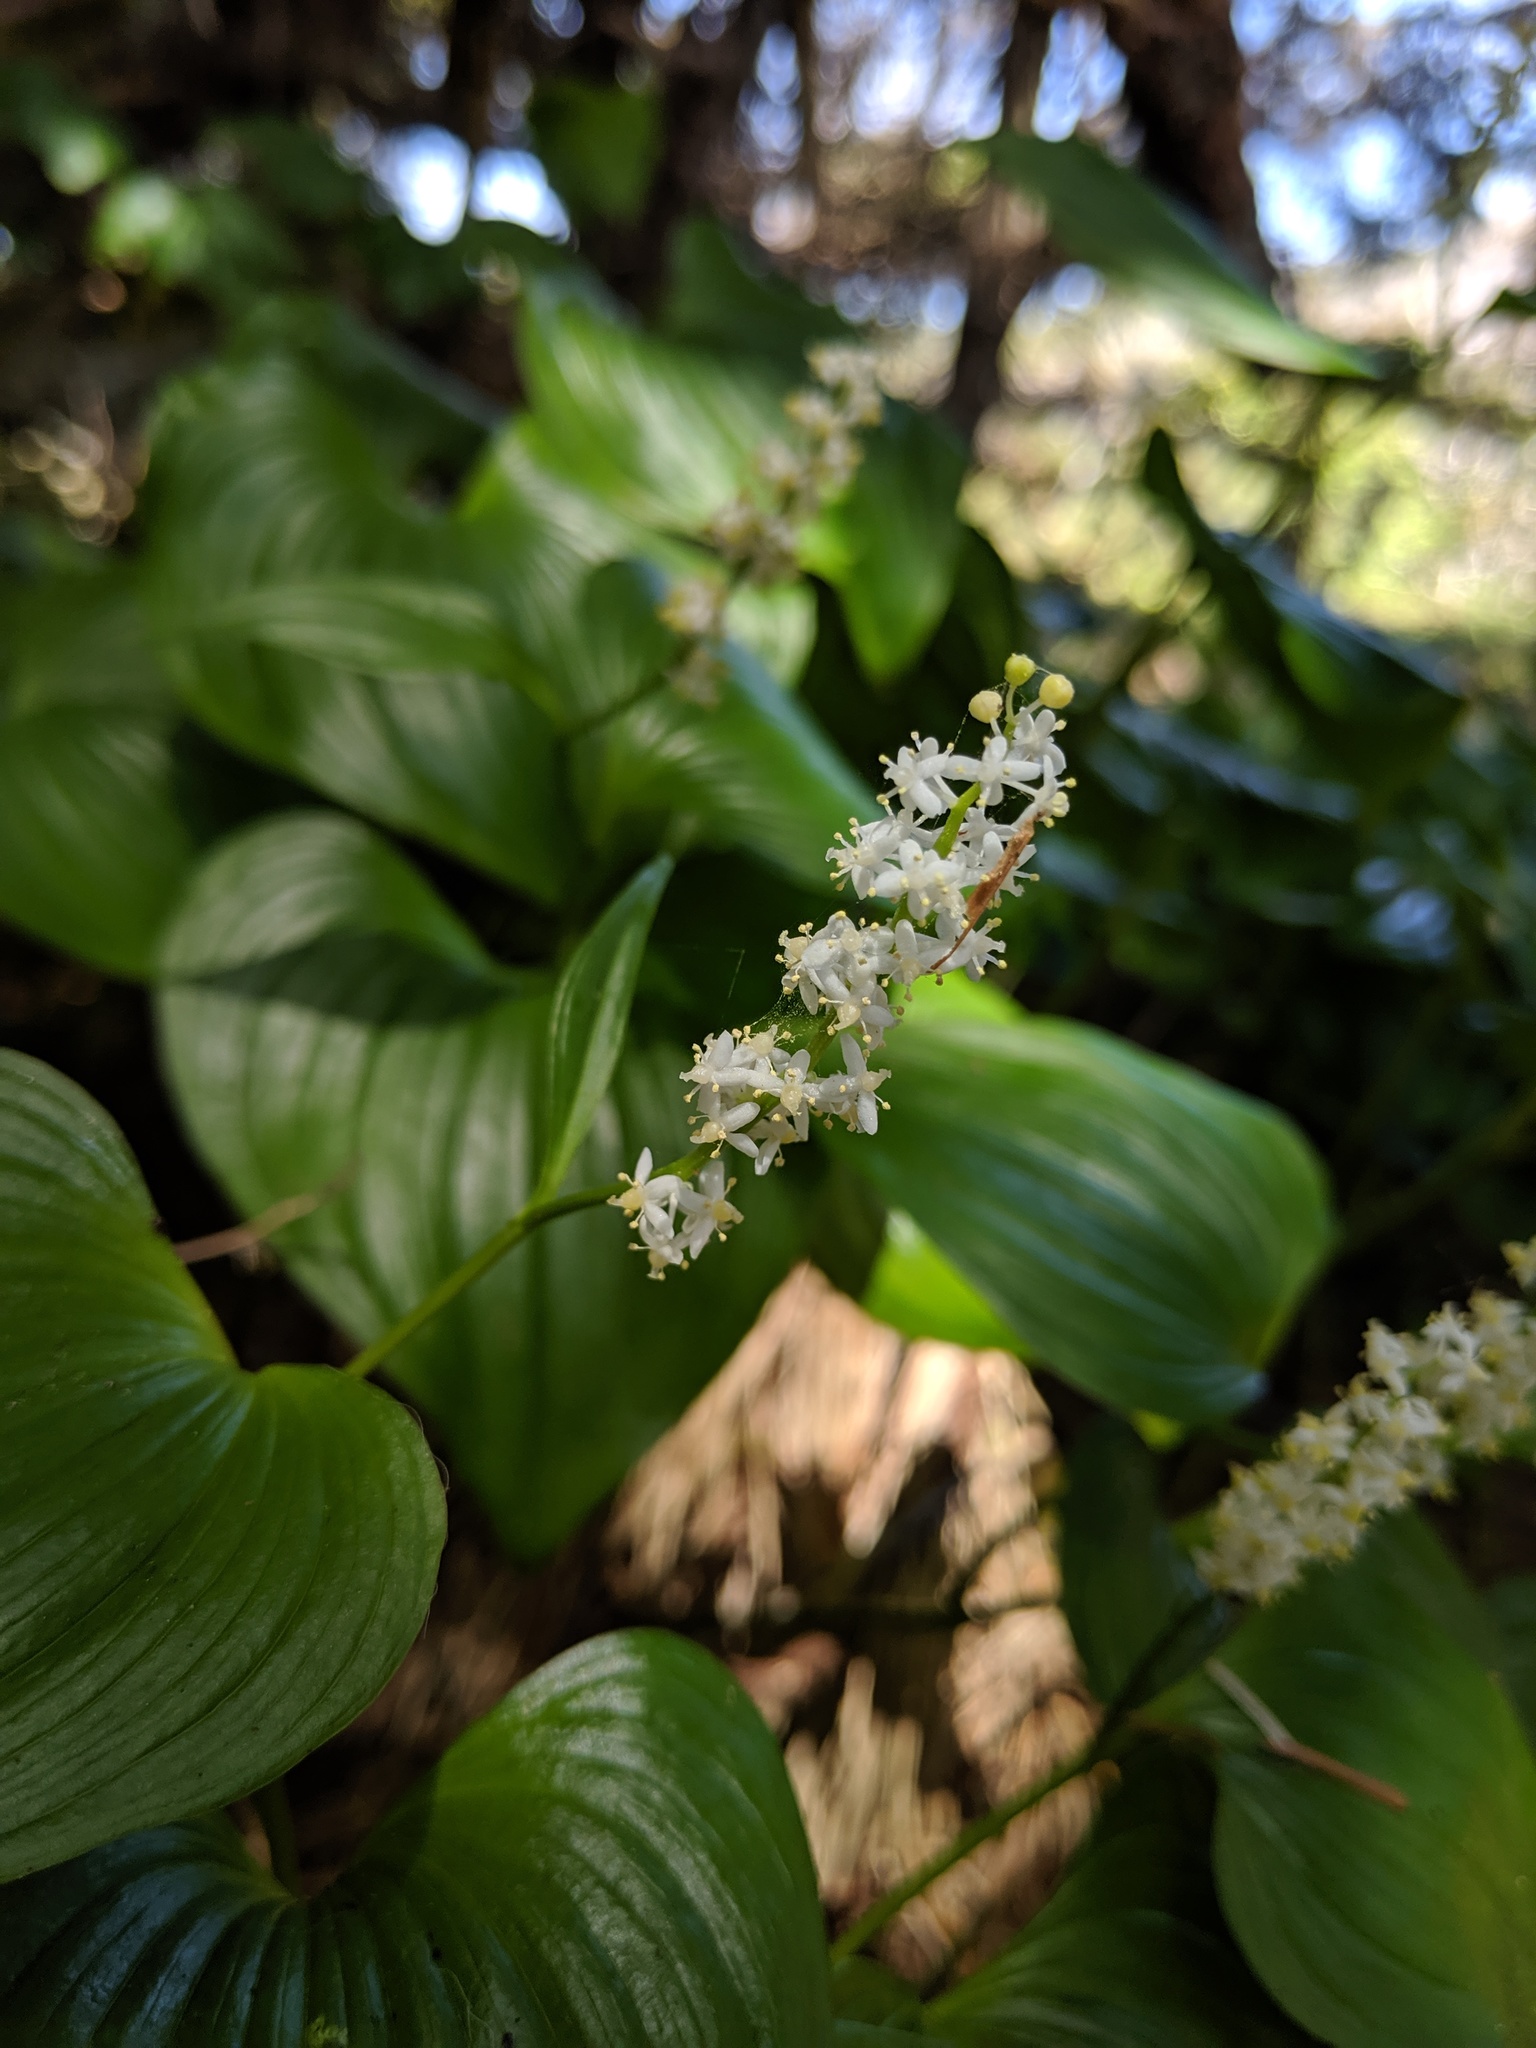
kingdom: Plantae
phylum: Tracheophyta
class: Liliopsida
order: Asparagales
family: Asparagaceae
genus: Maianthemum
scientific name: Maianthemum dilatatum
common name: False lily-of-the-valley
